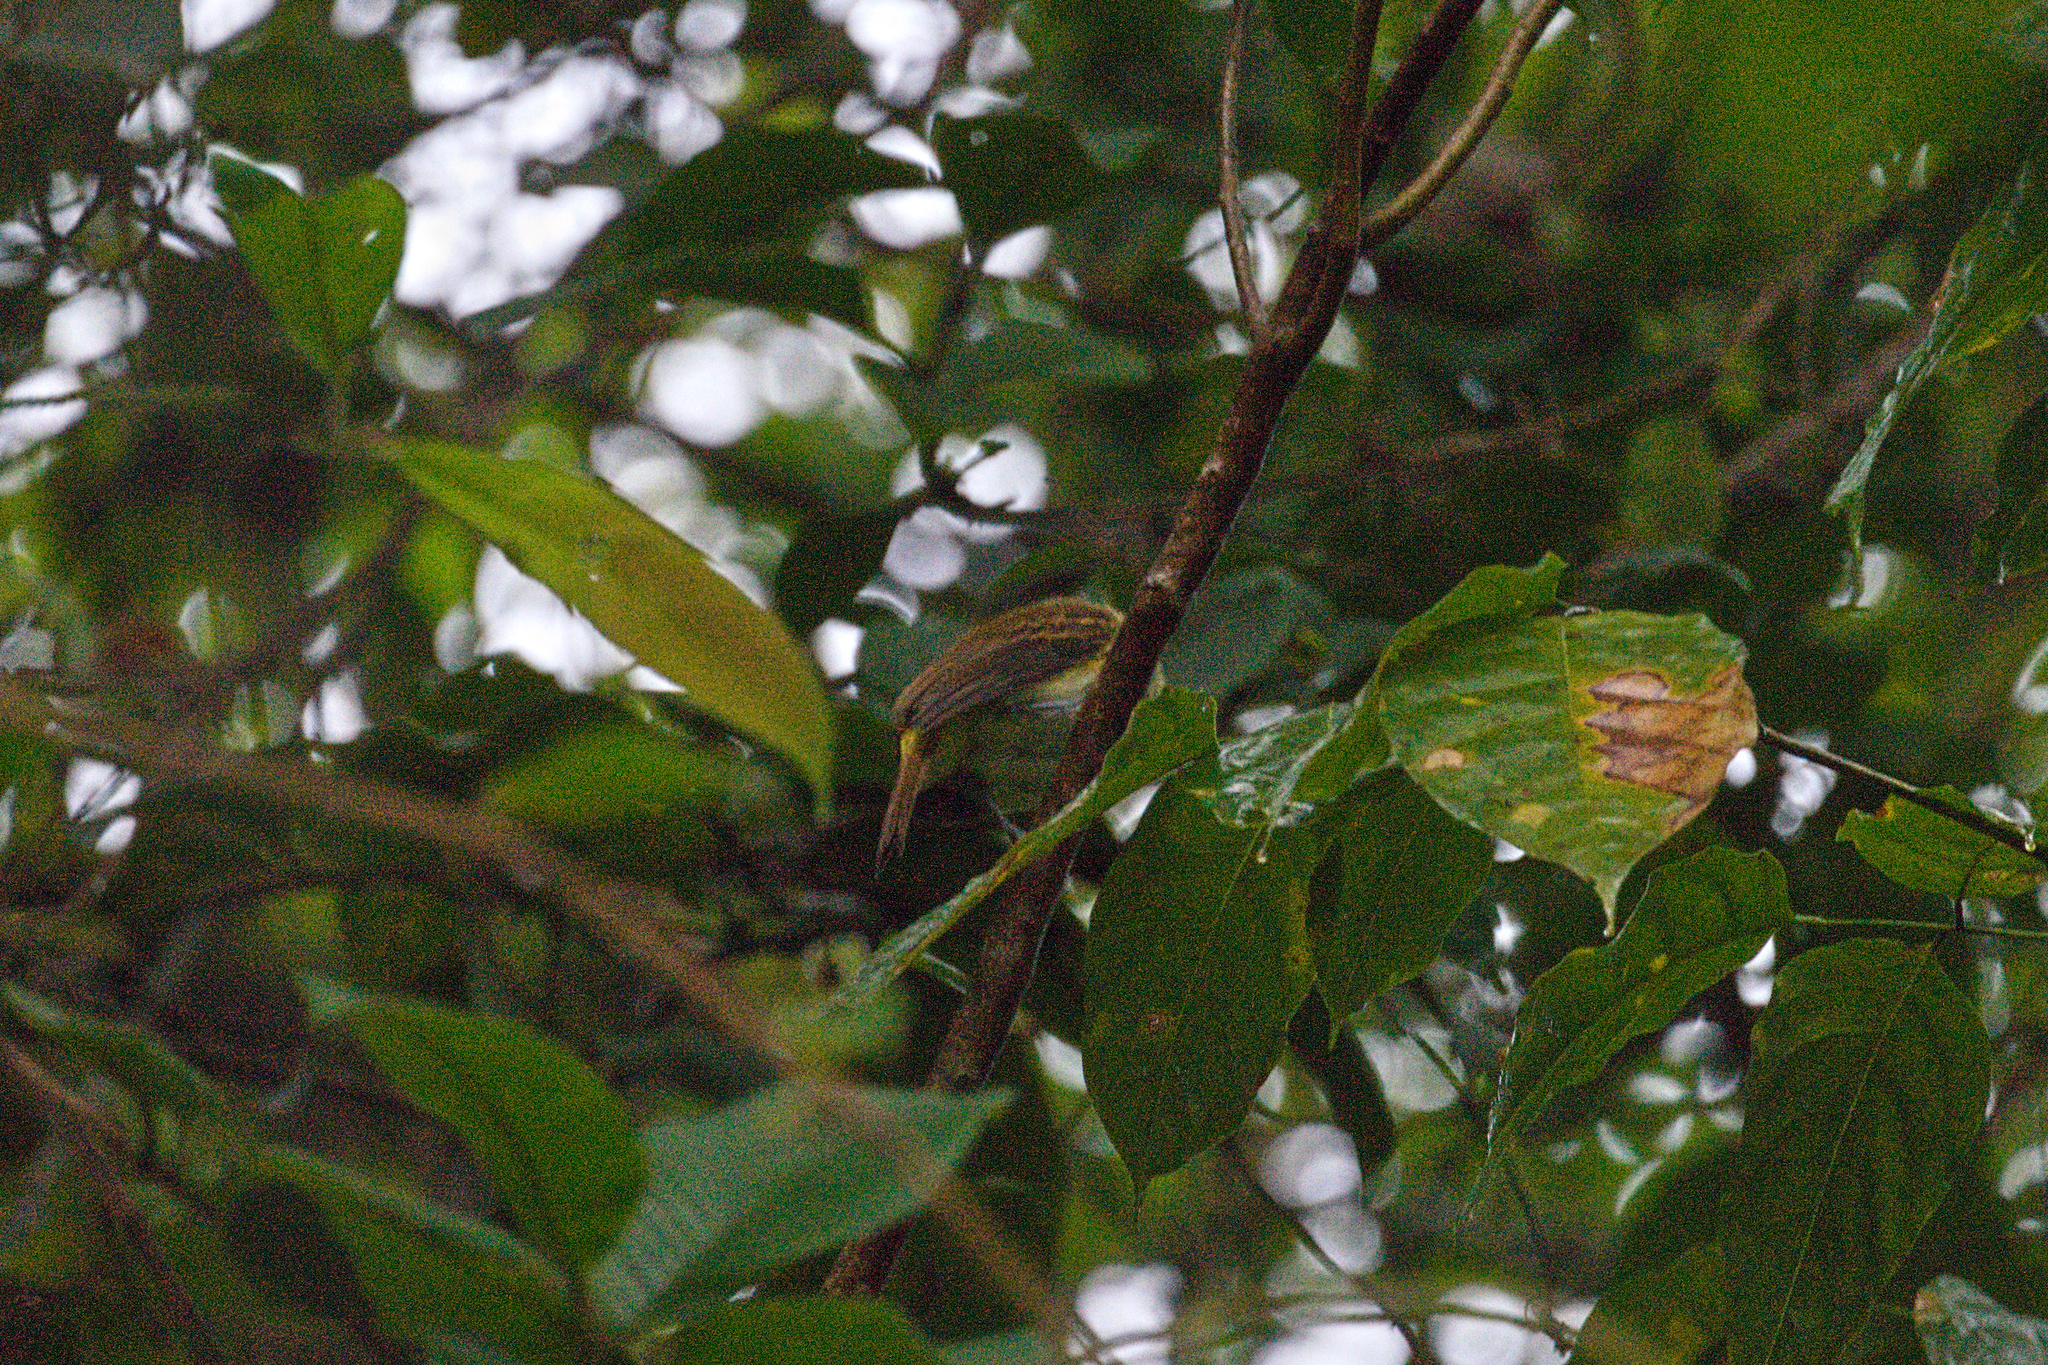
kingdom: Animalia
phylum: Chordata
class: Aves
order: Passeriformes
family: Tyrannidae
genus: Attila
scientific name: Attila spadiceus
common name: Bright-rumped attila
